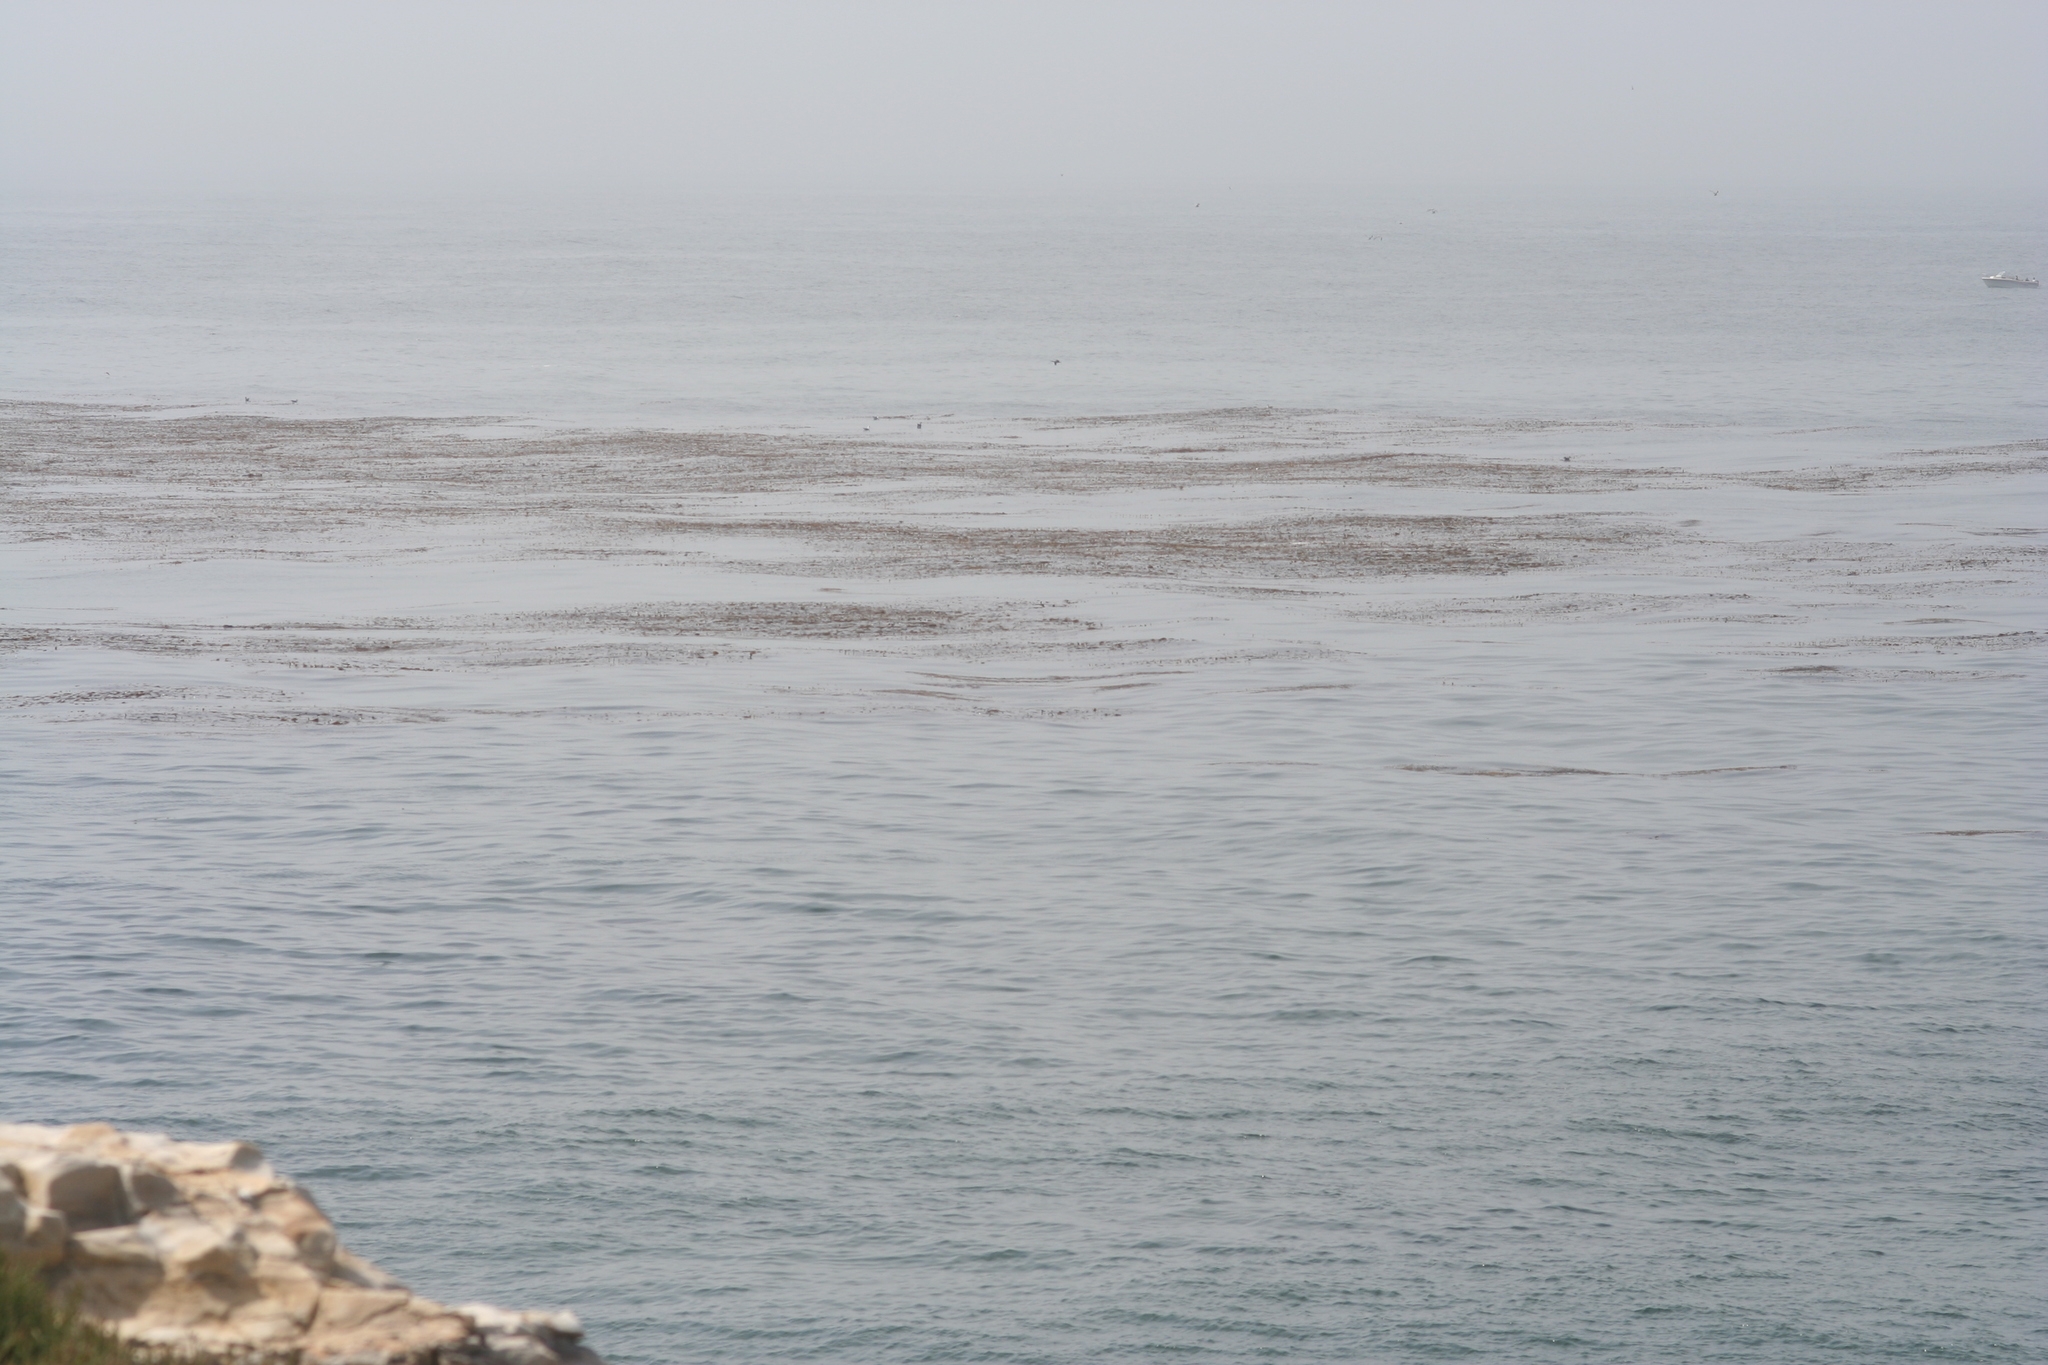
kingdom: Chromista
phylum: Ochrophyta
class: Phaeophyceae
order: Laminariales
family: Laminariaceae
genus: Macrocystis
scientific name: Macrocystis pyrifera
